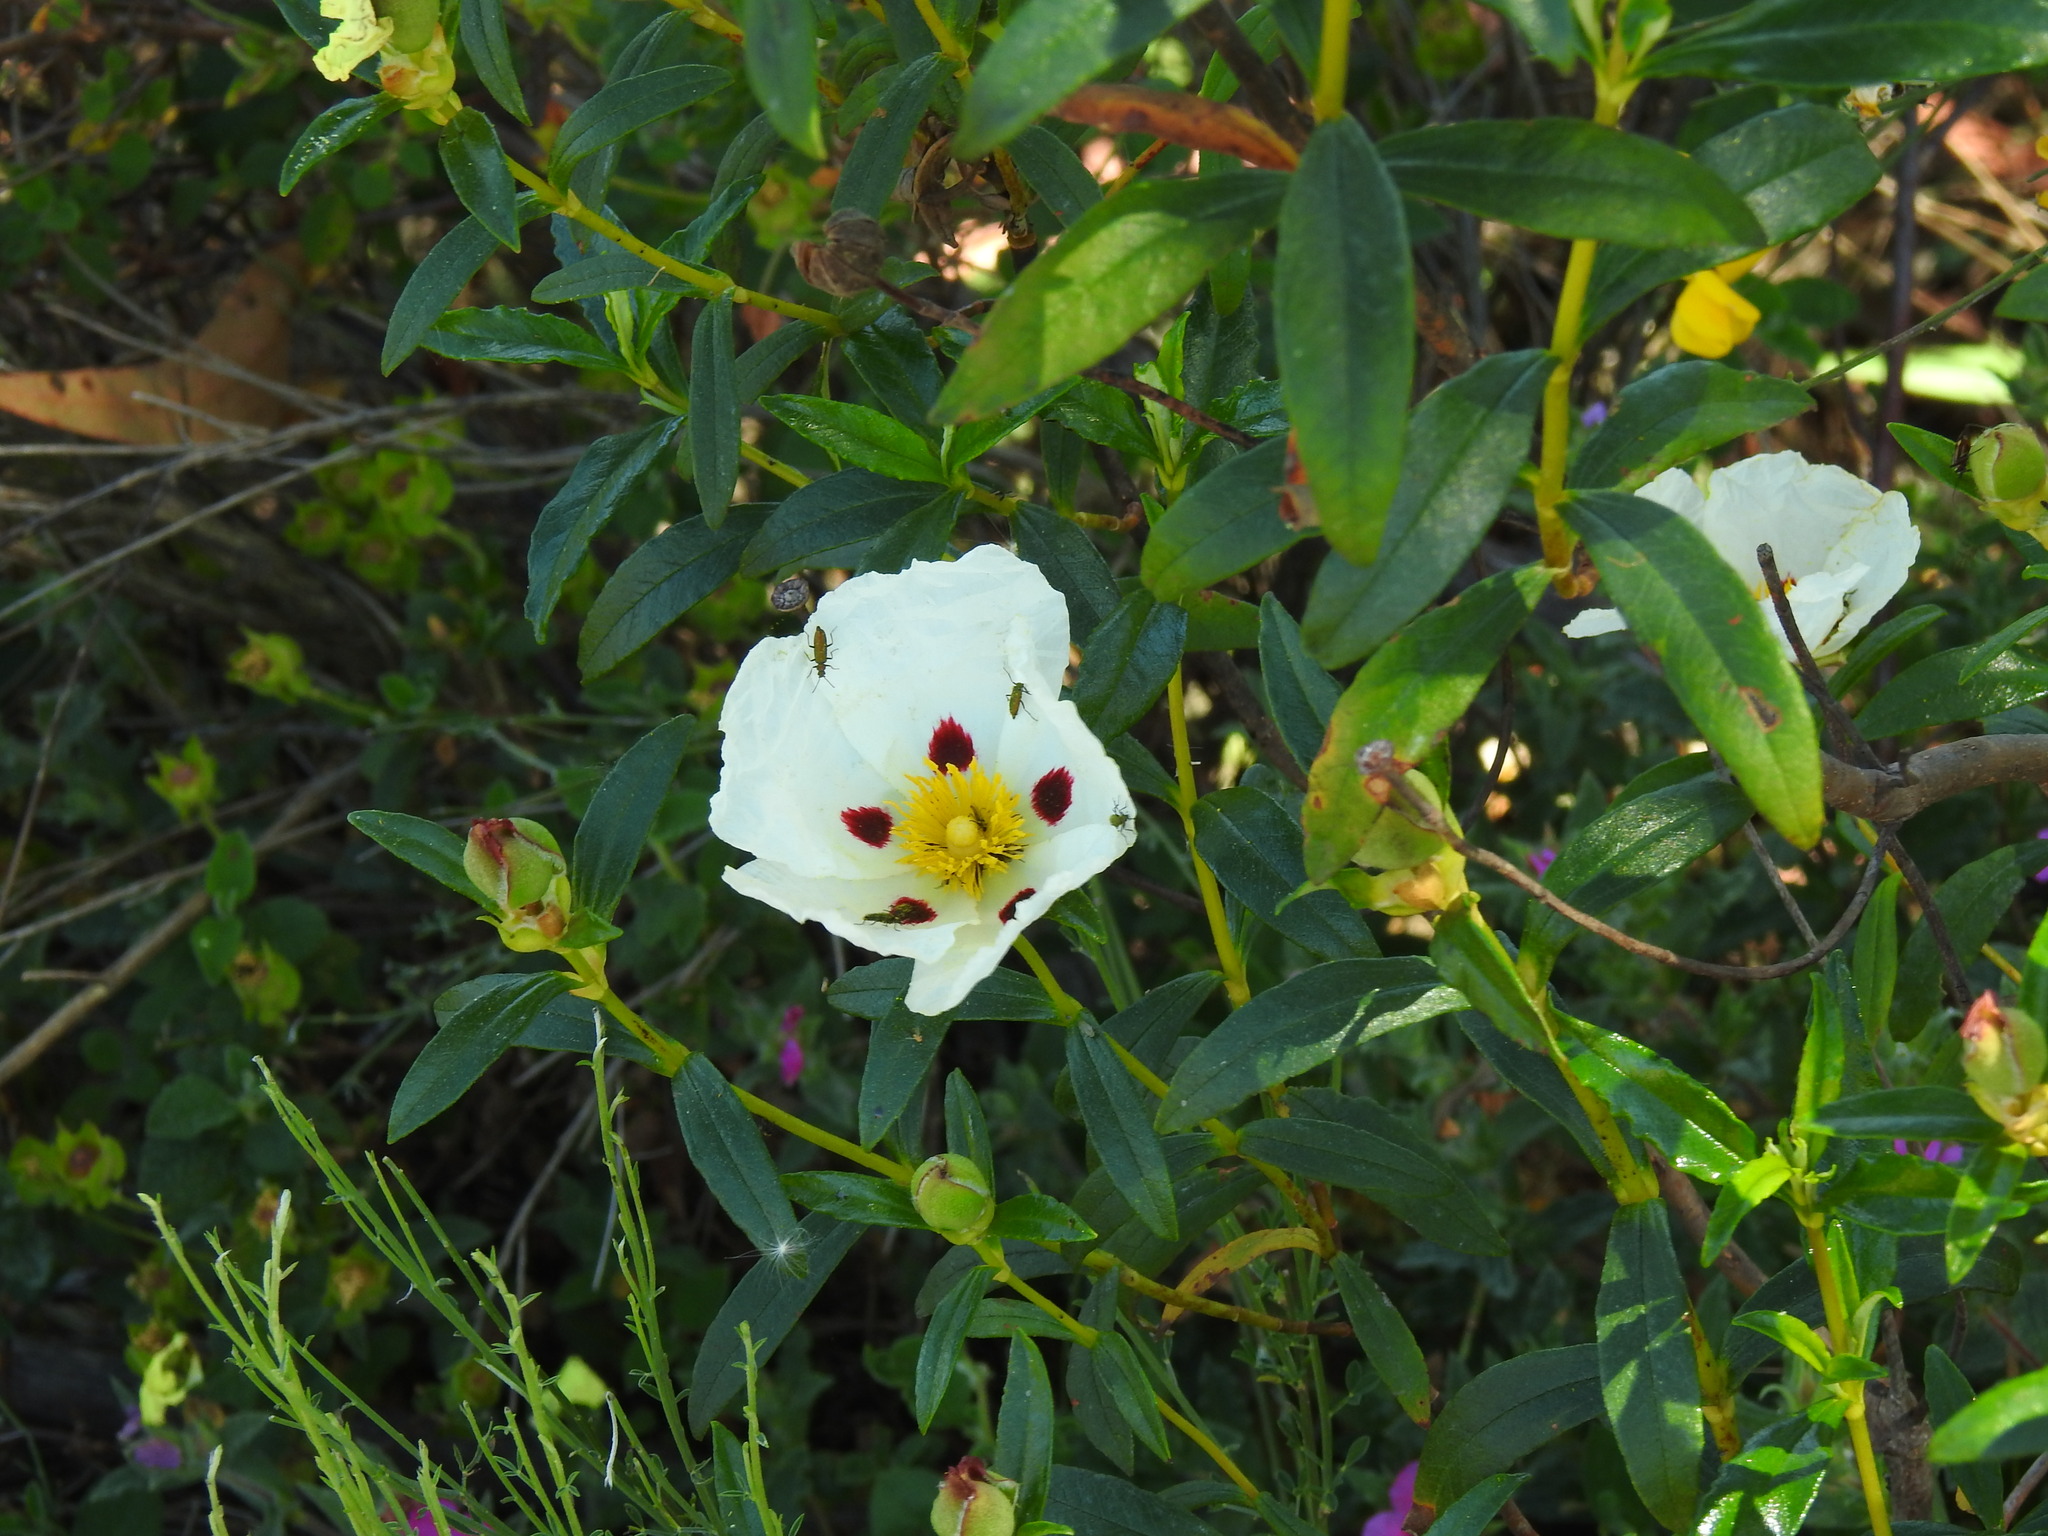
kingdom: Plantae
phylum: Tracheophyta
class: Magnoliopsida
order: Malvales
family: Cistaceae
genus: Cistus
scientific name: Cistus ladanifer
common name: Common gum cistus
